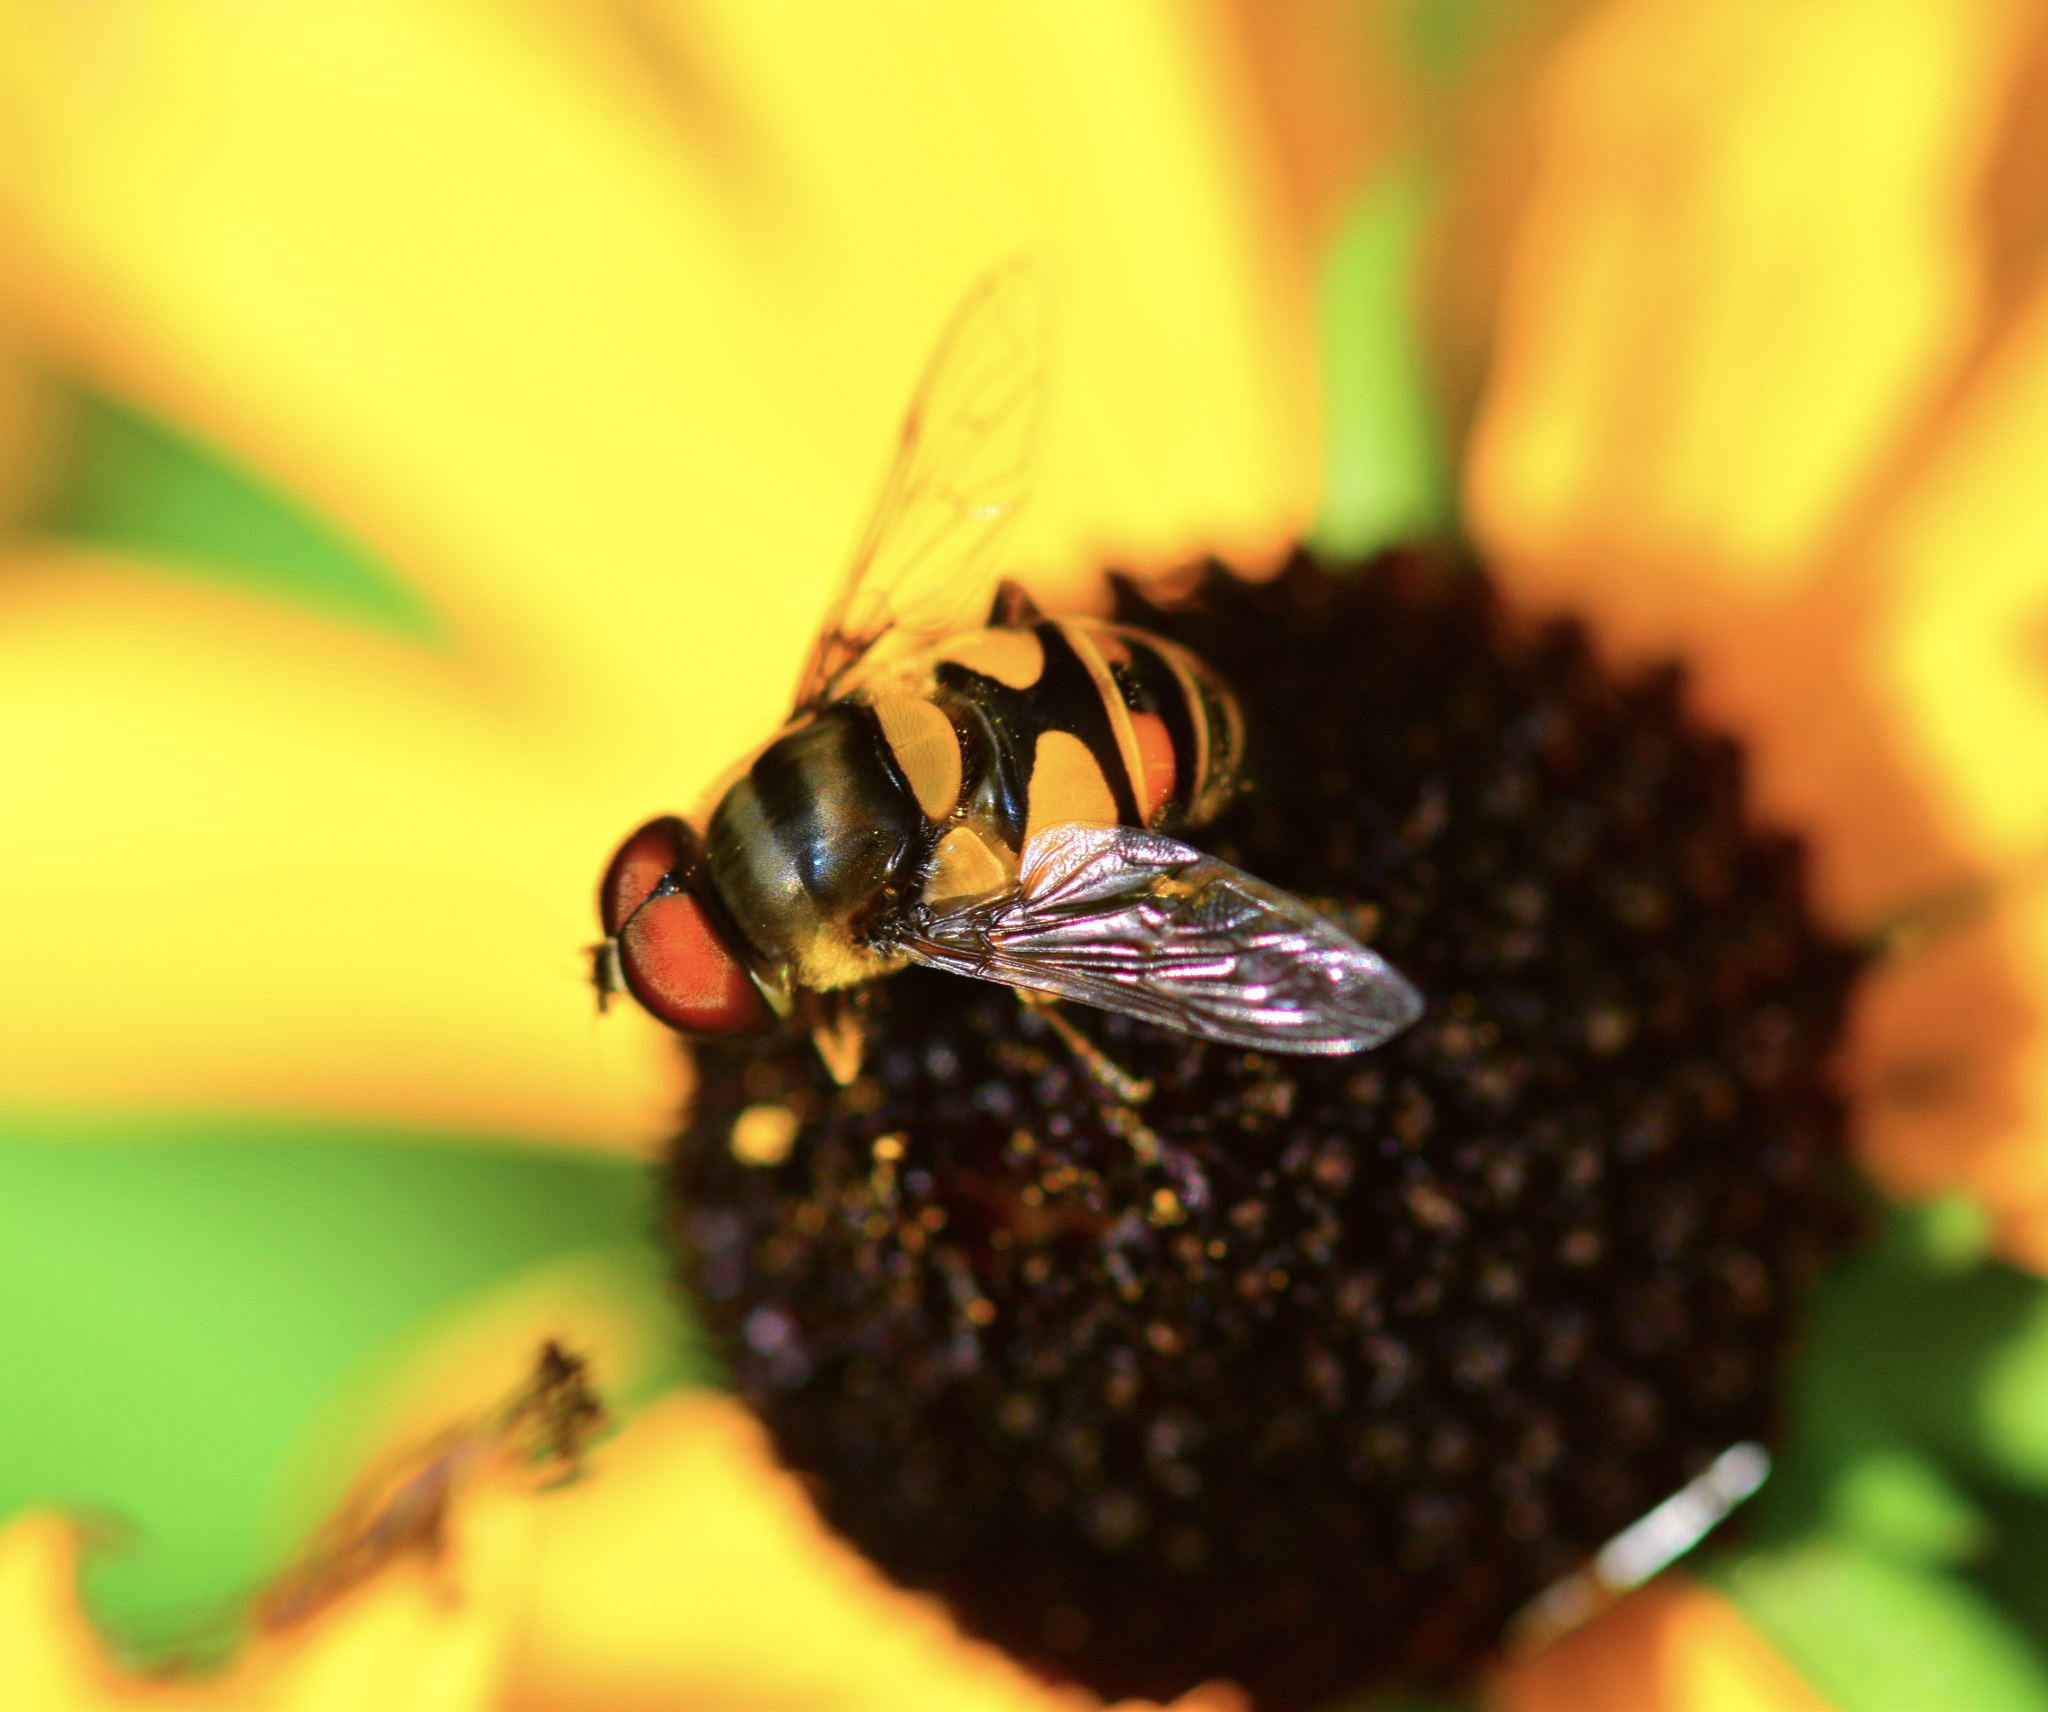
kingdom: Animalia
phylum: Arthropoda
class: Insecta
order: Diptera
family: Syrphidae
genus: Eristalis
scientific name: Eristalis transversa
